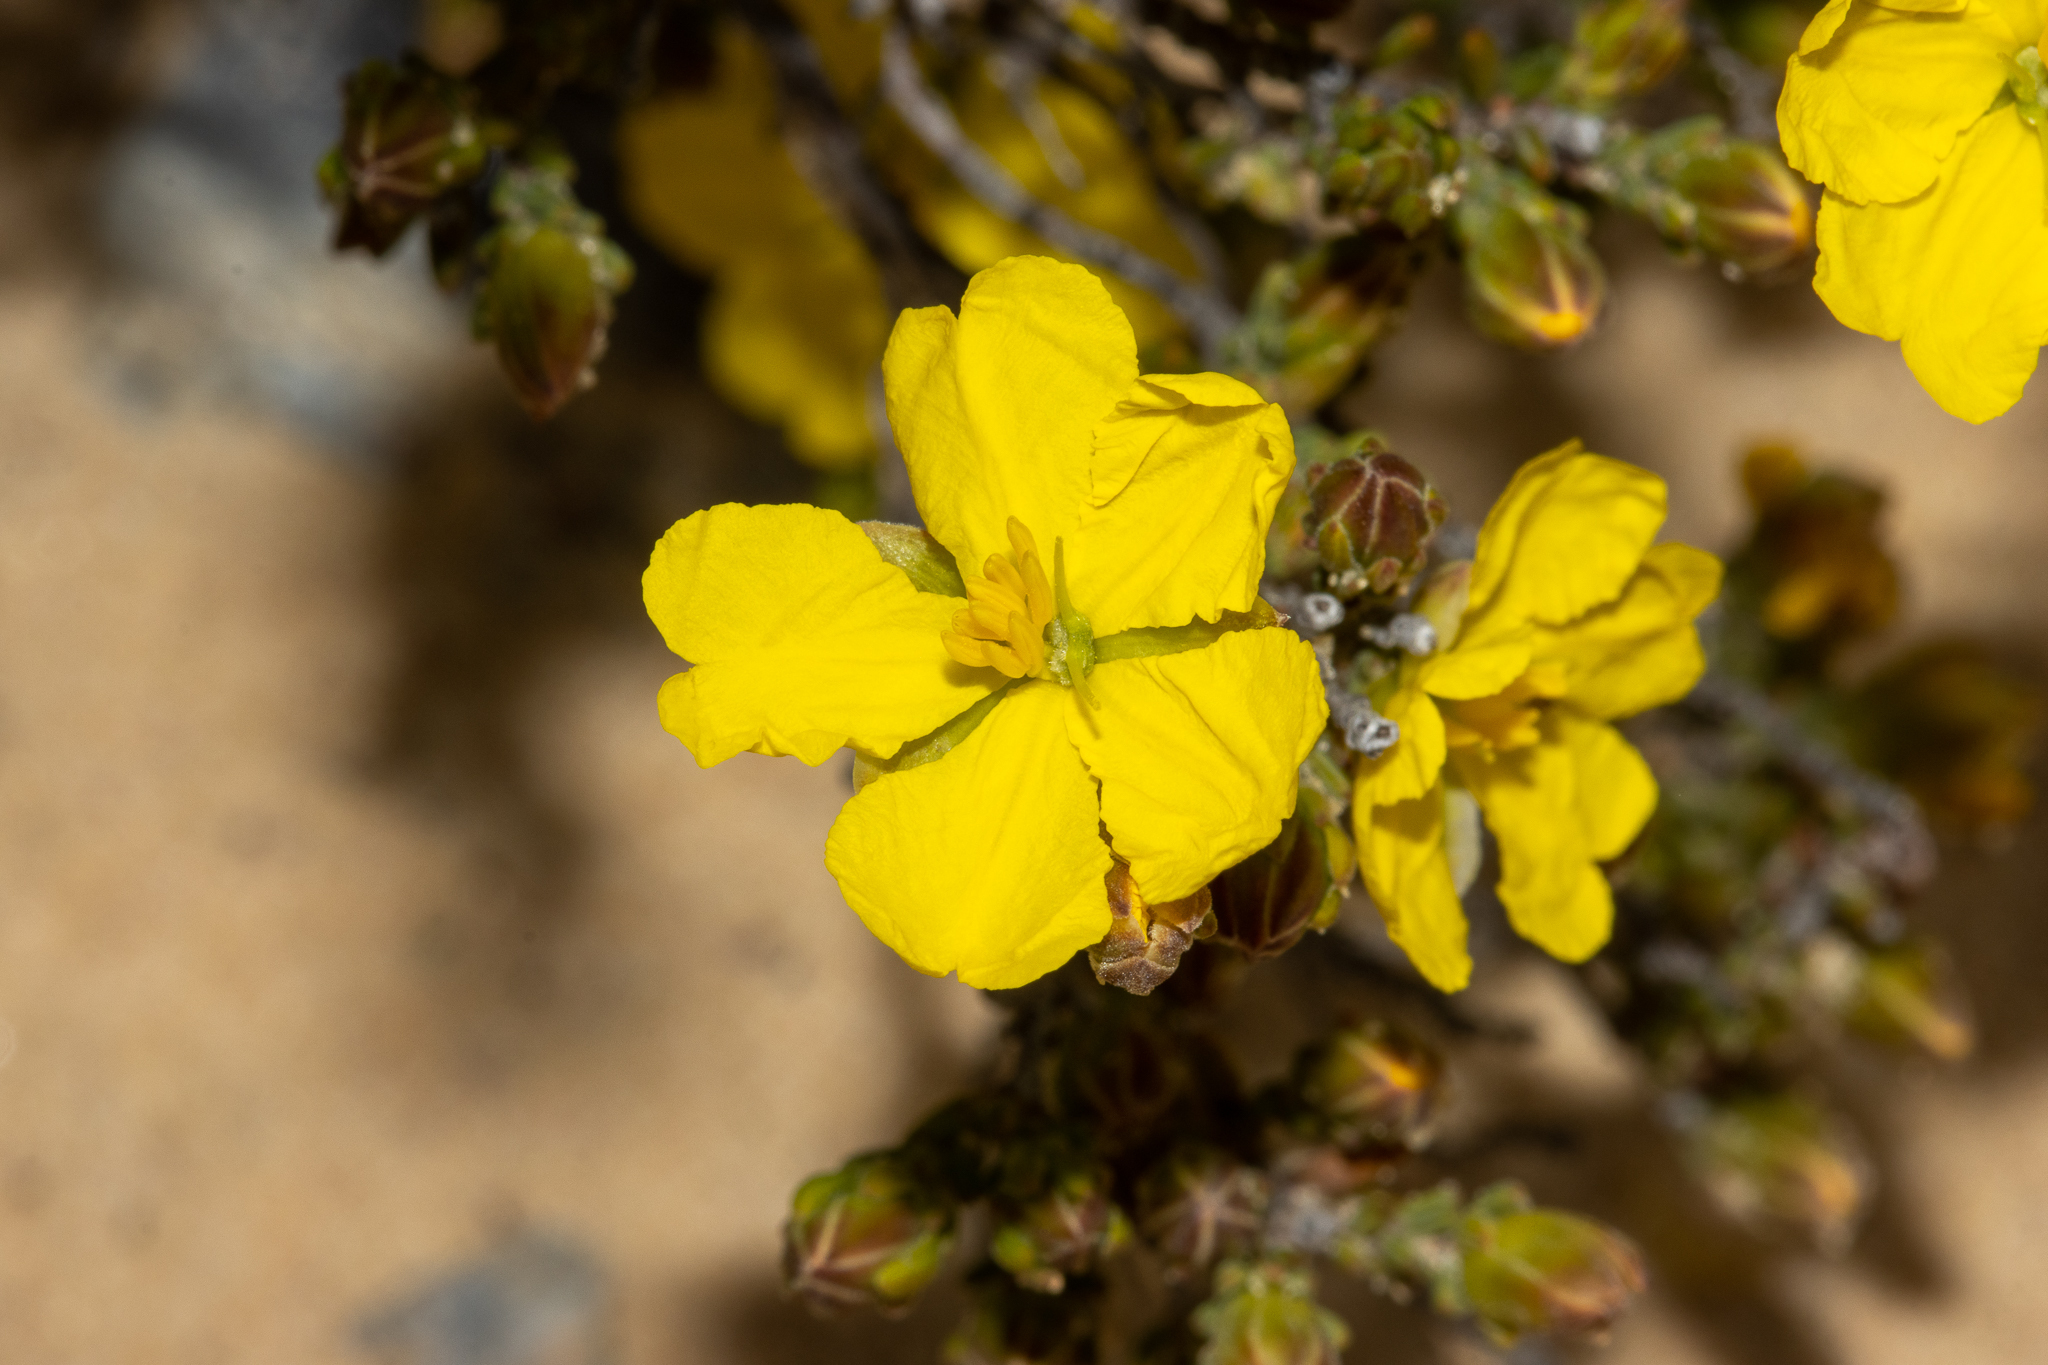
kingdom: Plantae
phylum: Tracheophyta
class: Magnoliopsida
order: Dilleniales
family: Dilleniaceae
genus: Hibbertia
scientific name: Hibbertia devitata
